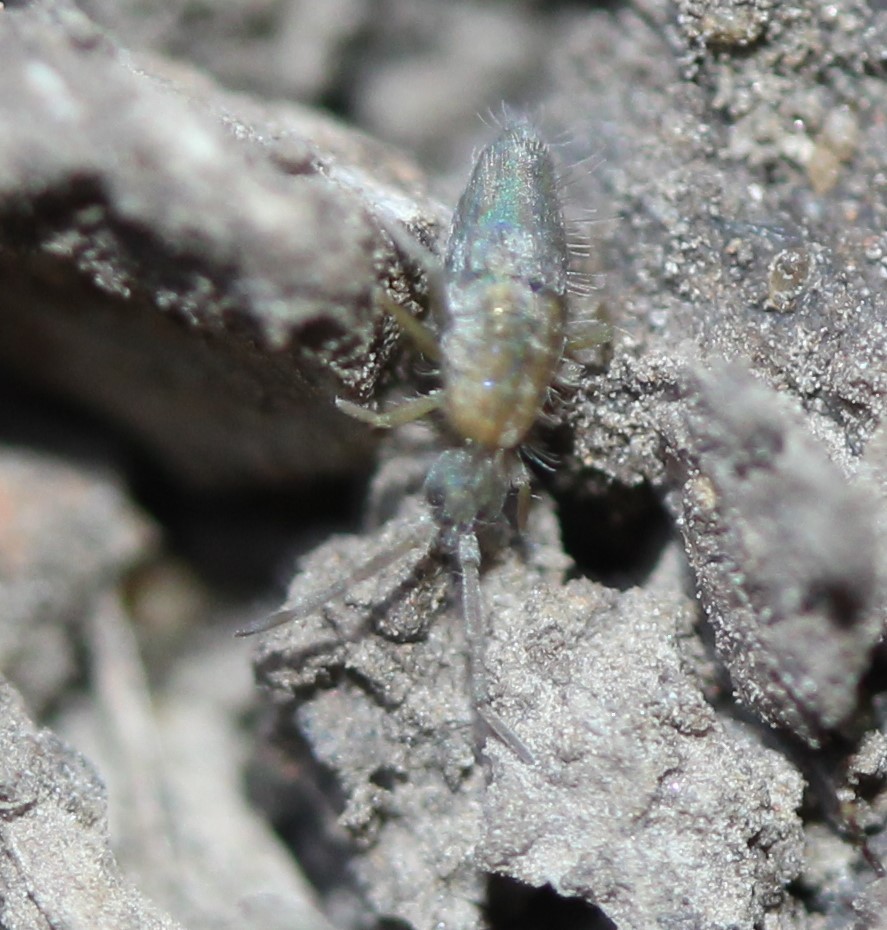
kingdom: Animalia
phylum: Arthropoda
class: Collembola
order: Entomobryomorpha
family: Entomobryidae
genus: Entomobrya
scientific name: Entomobrya unostrigata
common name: Springtail
